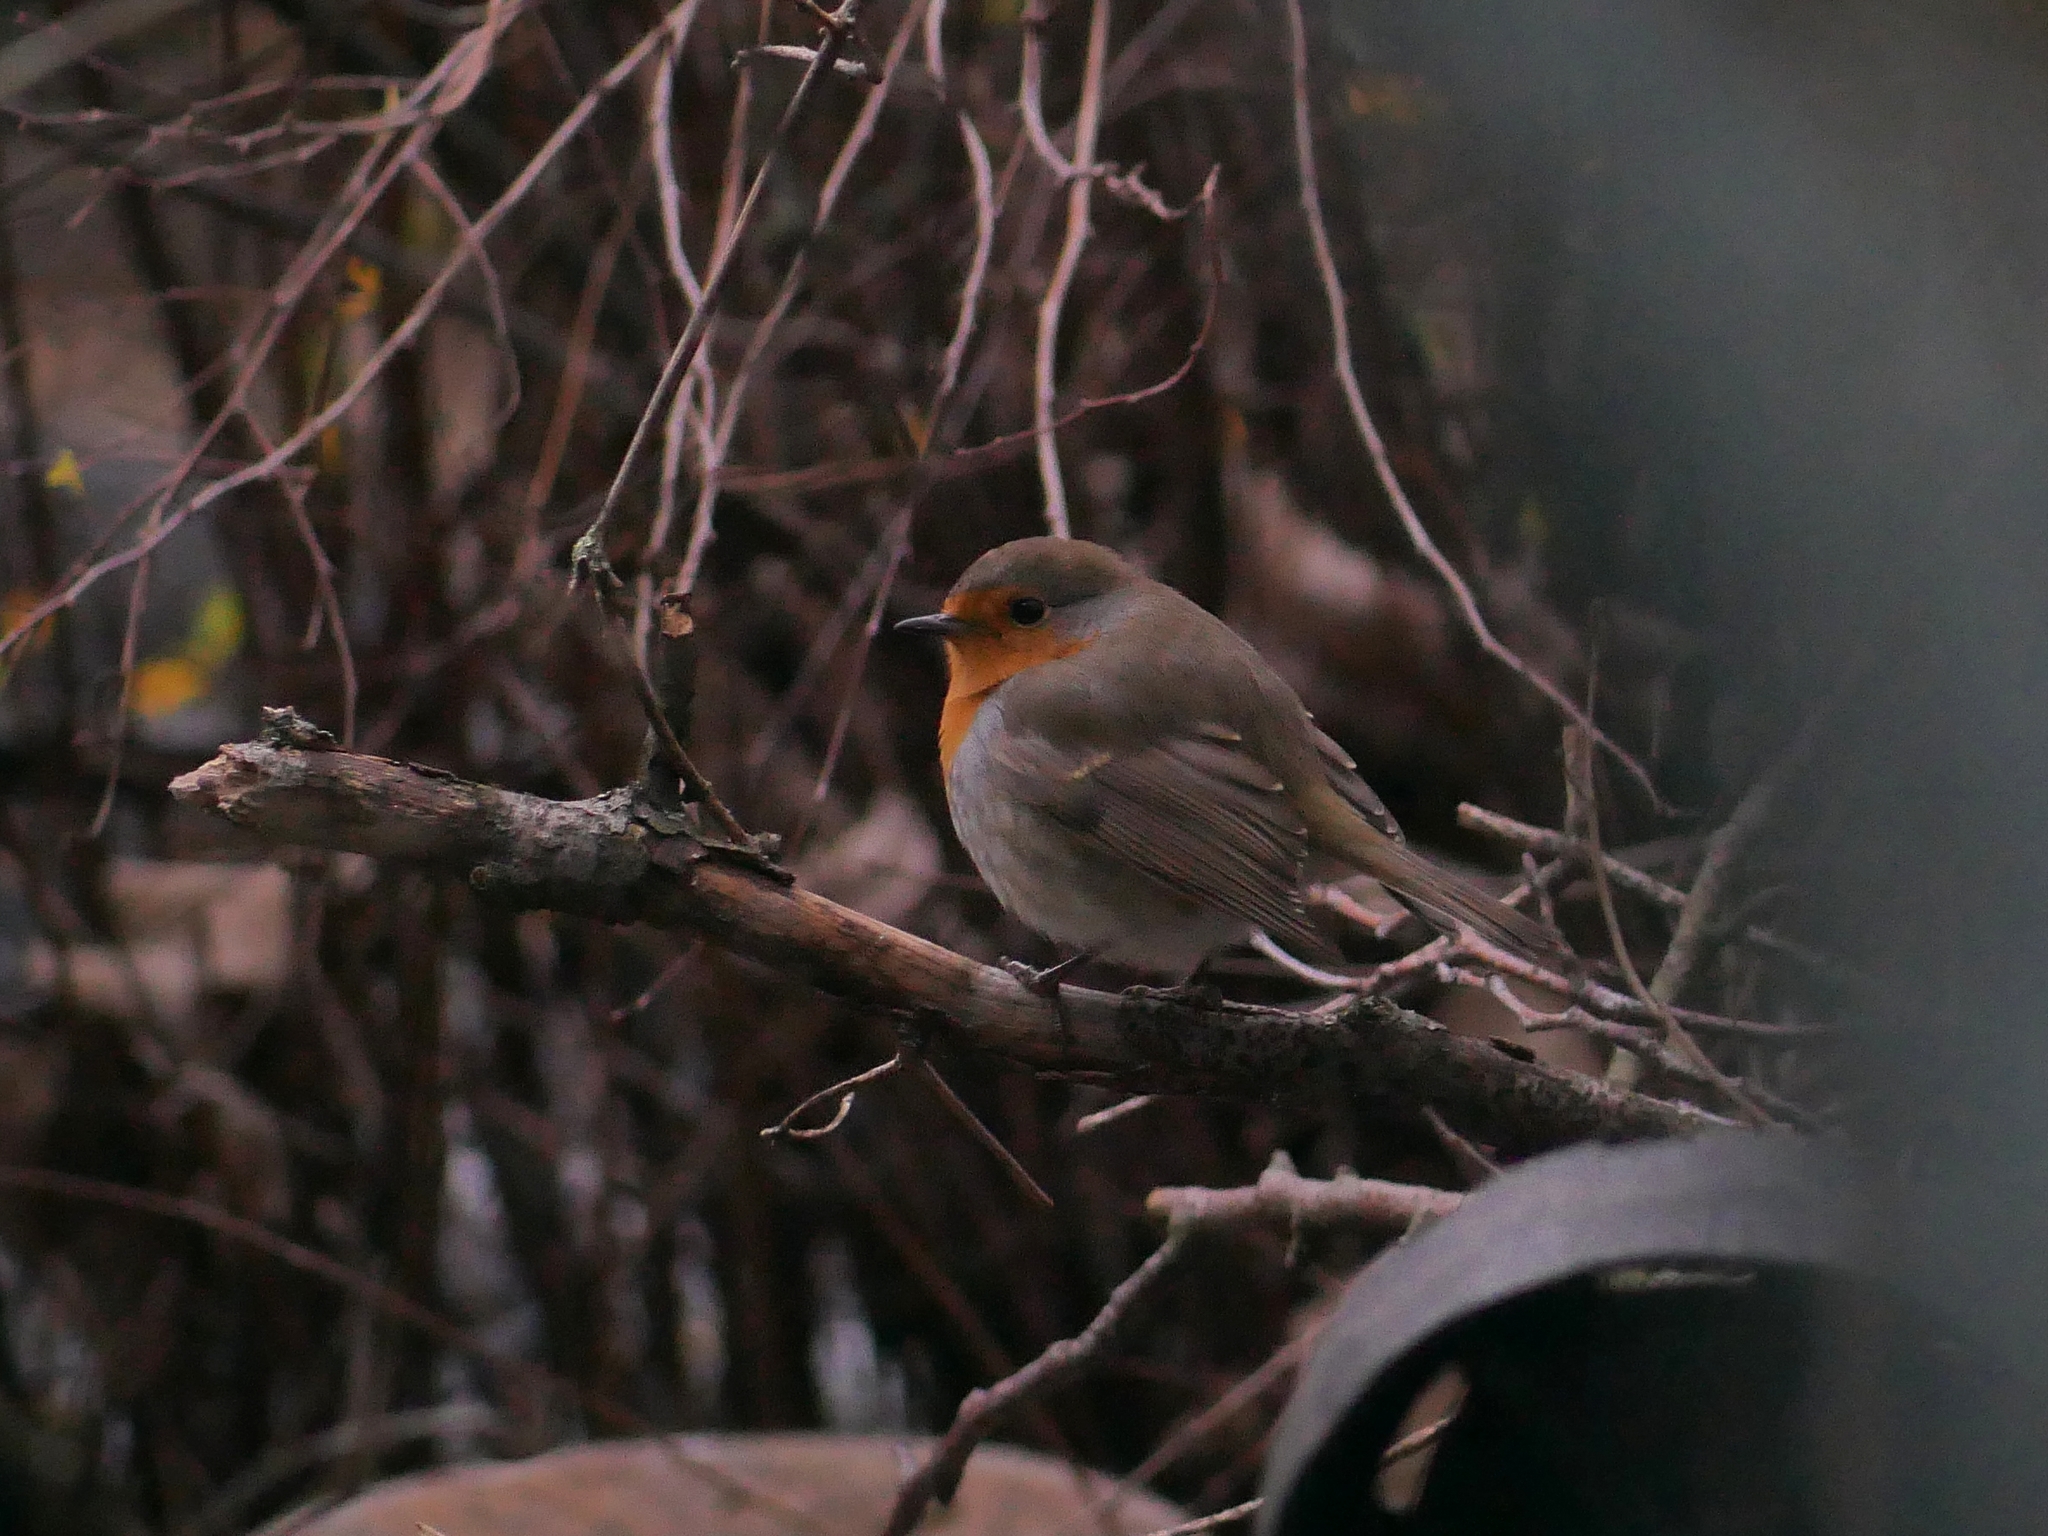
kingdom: Animalia
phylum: Chordata
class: Aves
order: Passeriformes
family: Muscicapidae
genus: Erithacus
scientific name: Erithacus rubecula
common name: European robin
